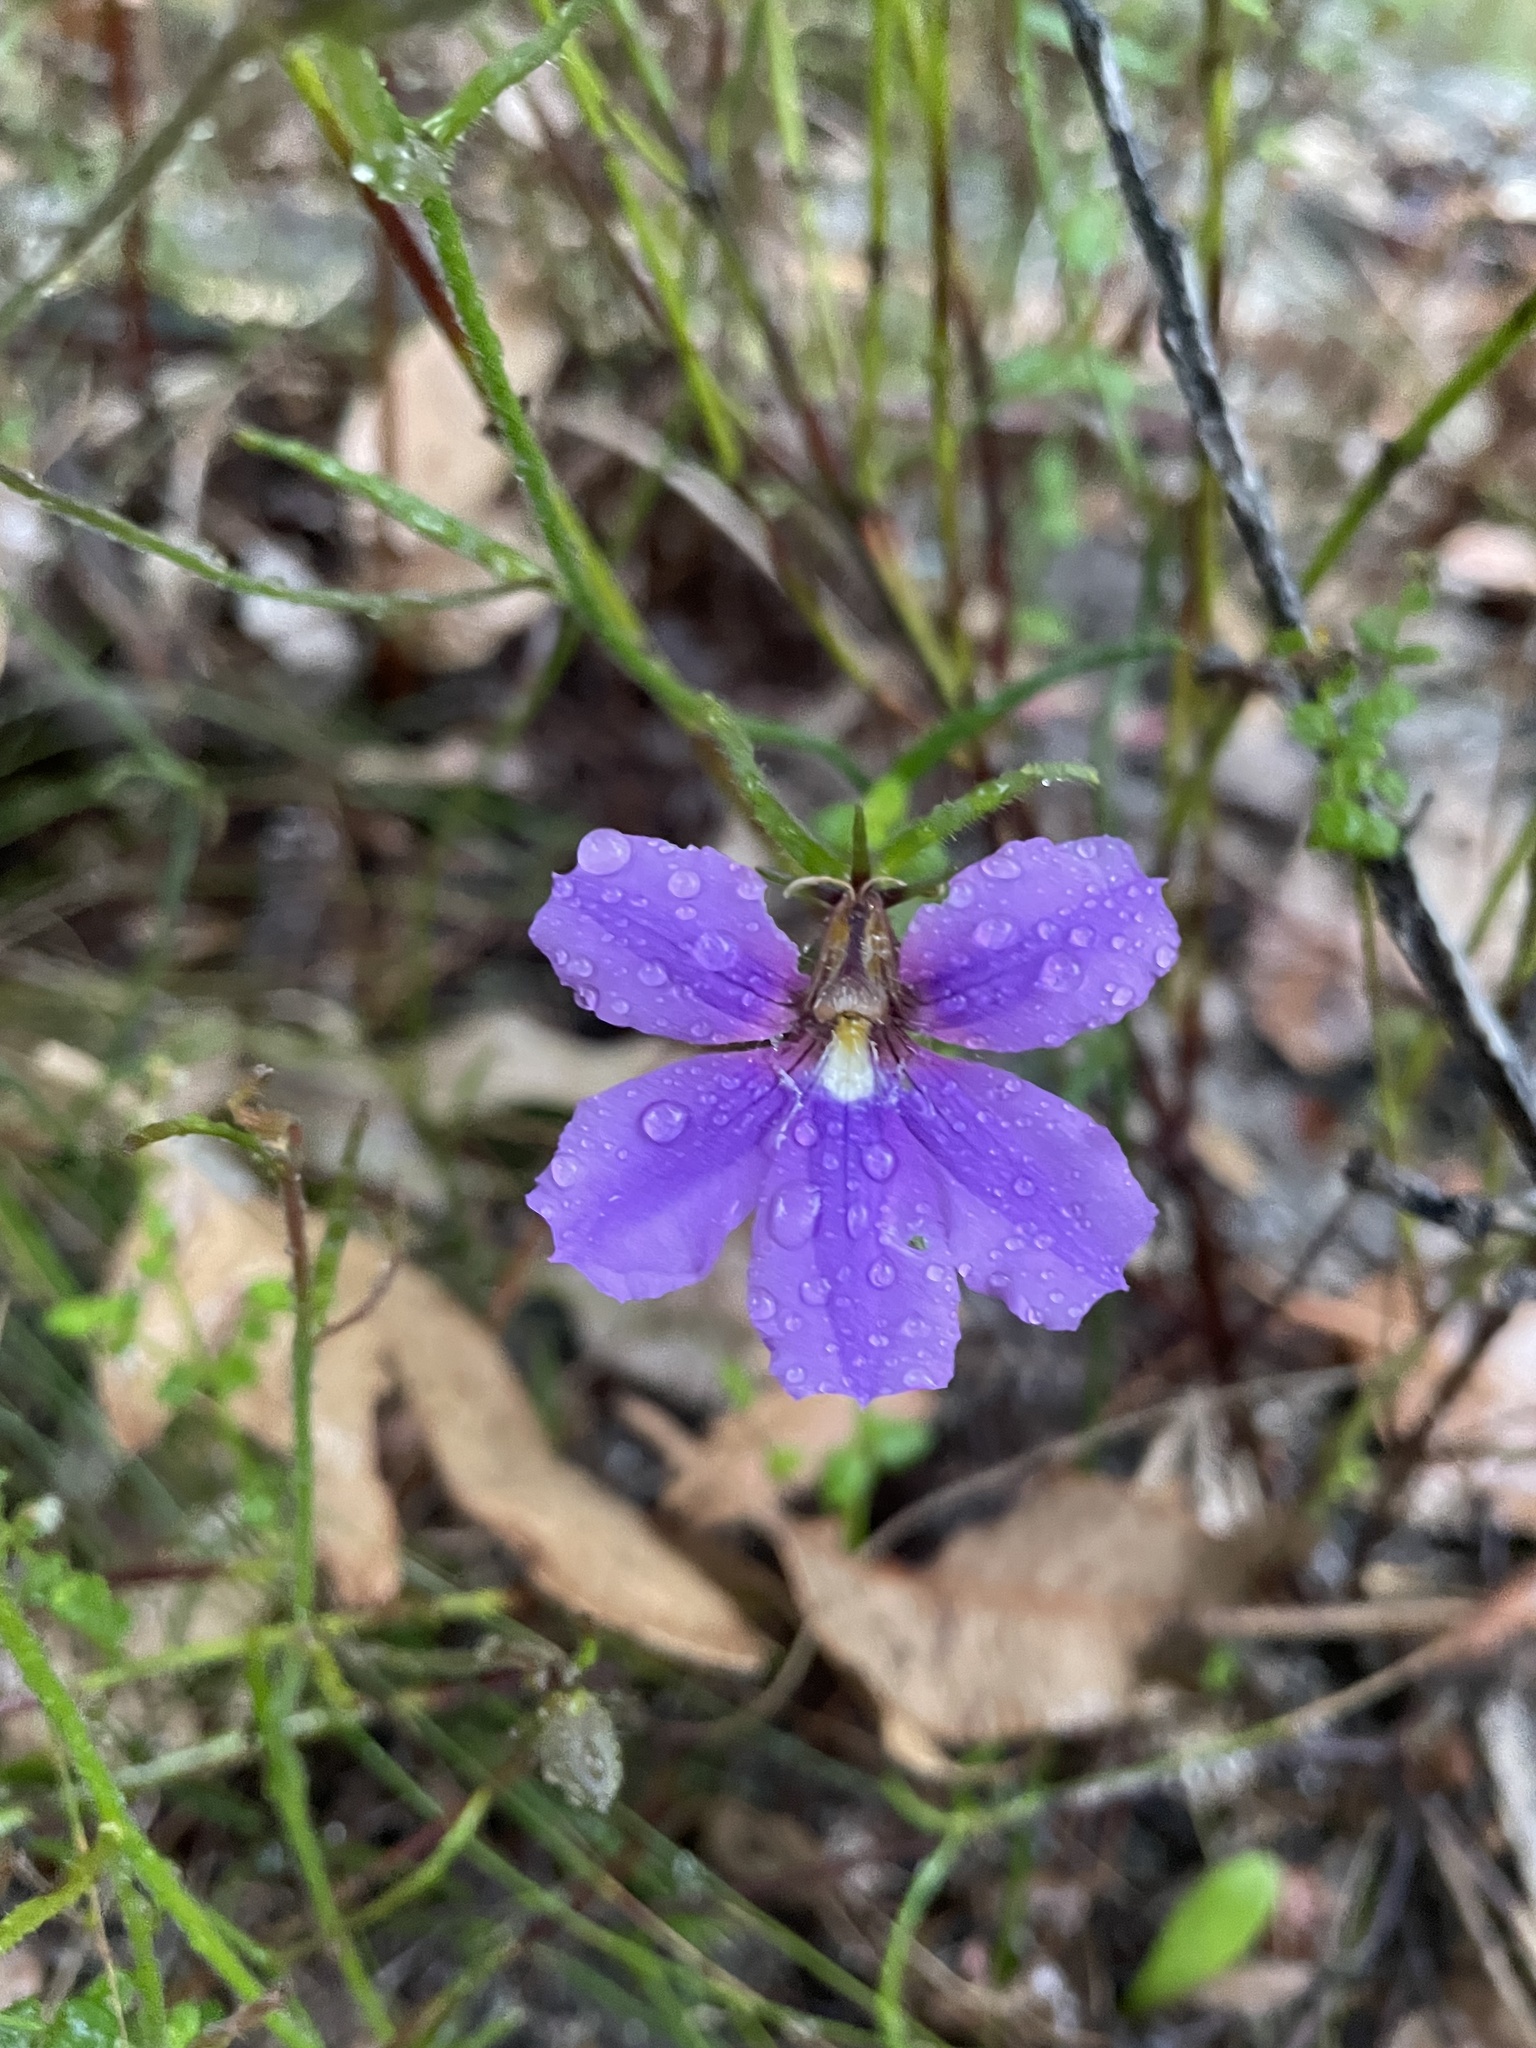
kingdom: Plantae
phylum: Tracheophyta
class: Magnoliopsida
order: Asterales
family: Goodeniaceae
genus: Scaevola
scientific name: Scaevola ramosissima
